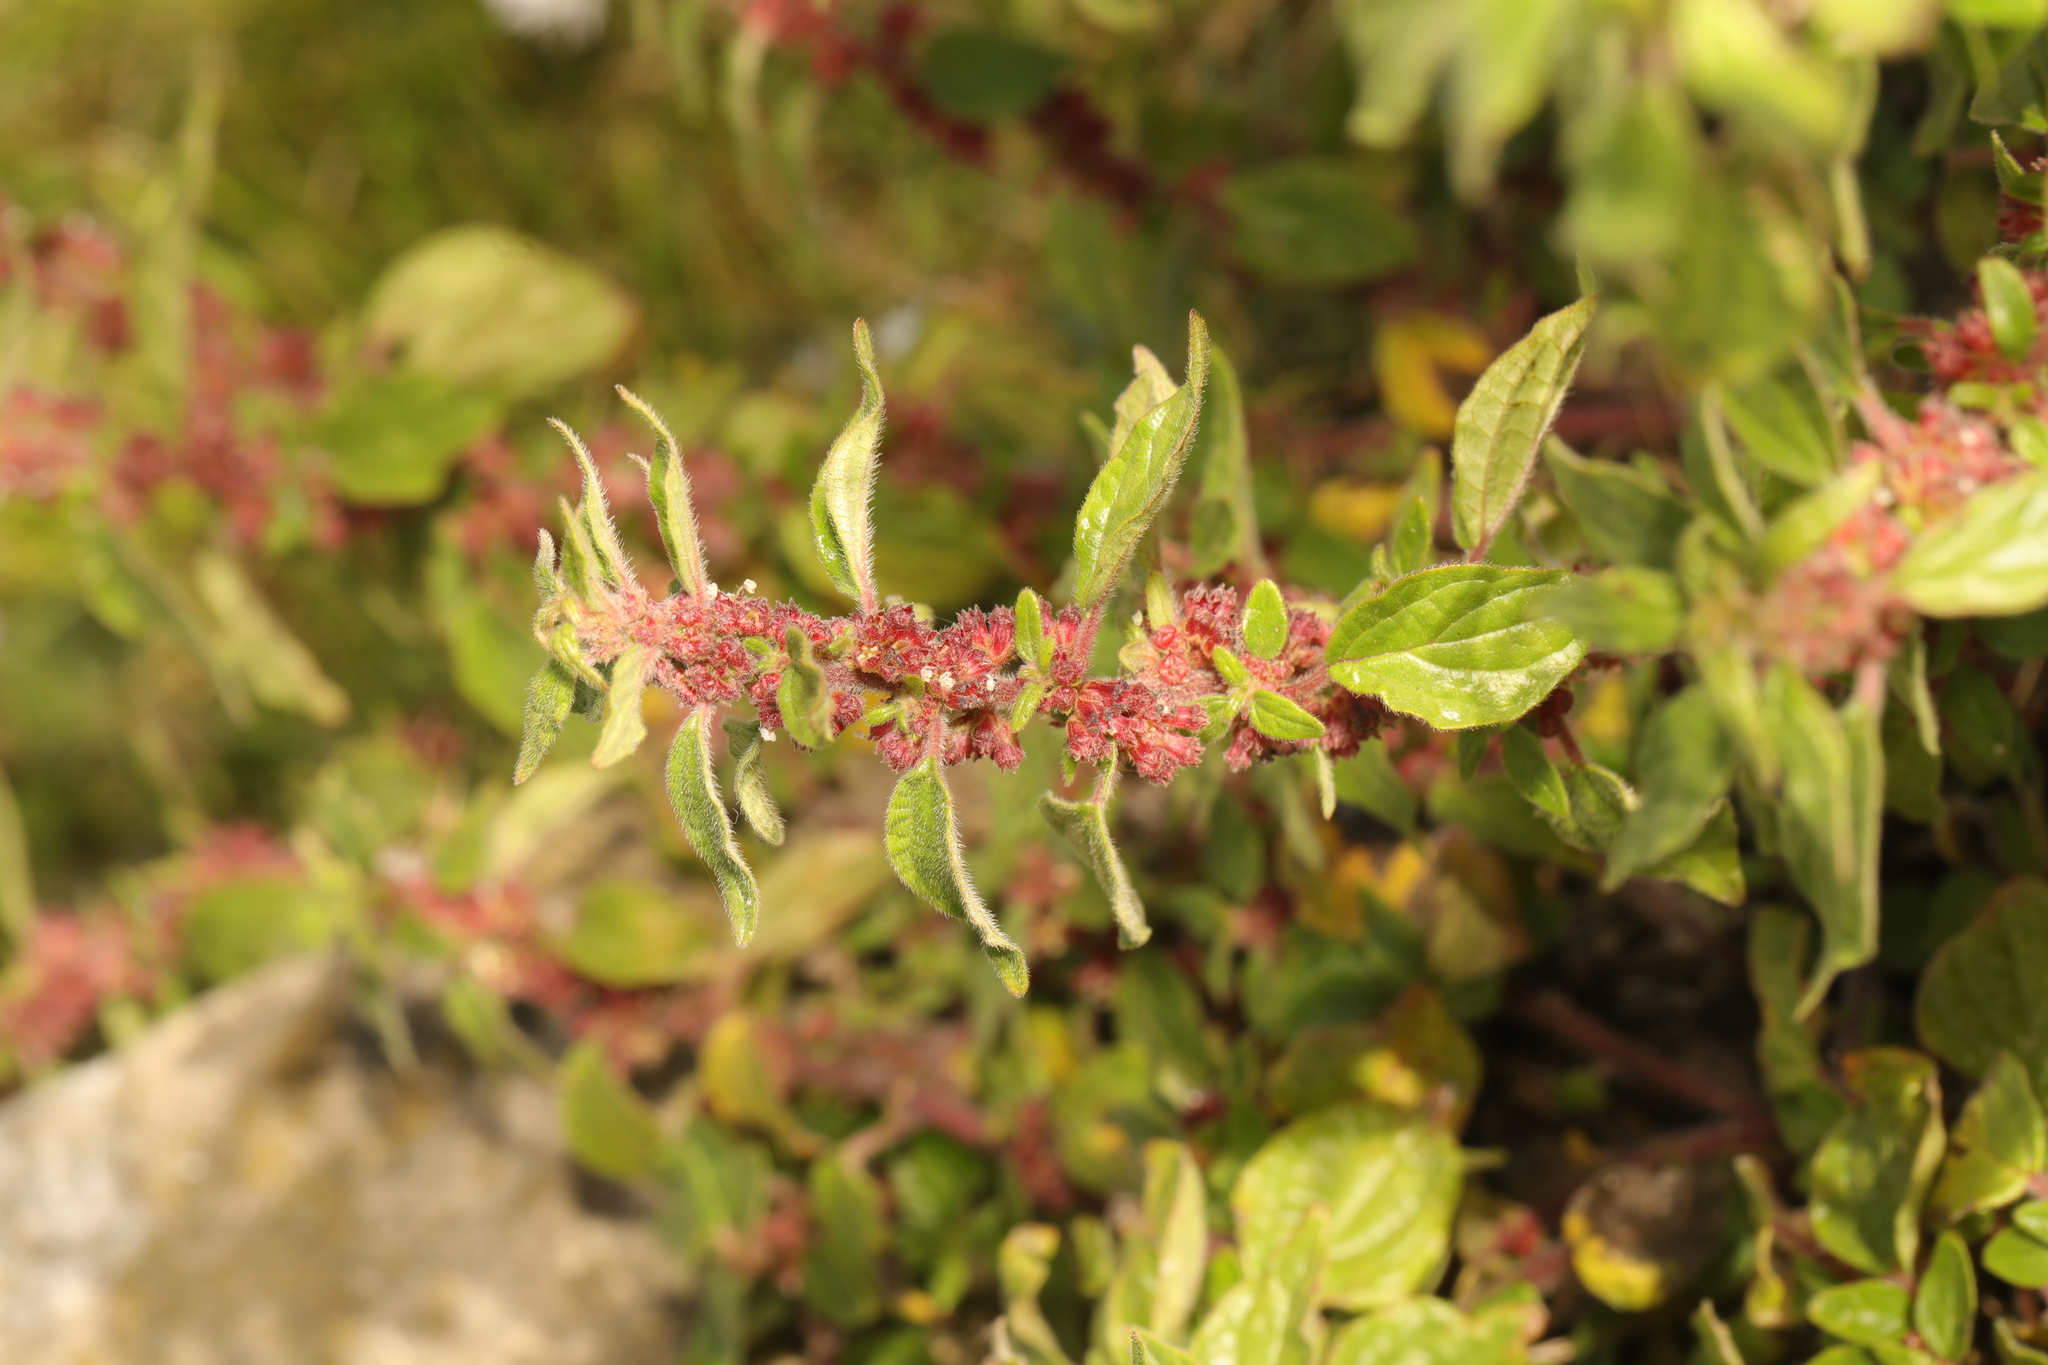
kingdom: Plantae
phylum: Tracheophyta
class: Magnoliopsida
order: Rosales
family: Urticaceae
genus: Parietaria
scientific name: Parietaria judaica
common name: Pellitory-of-the-wall
